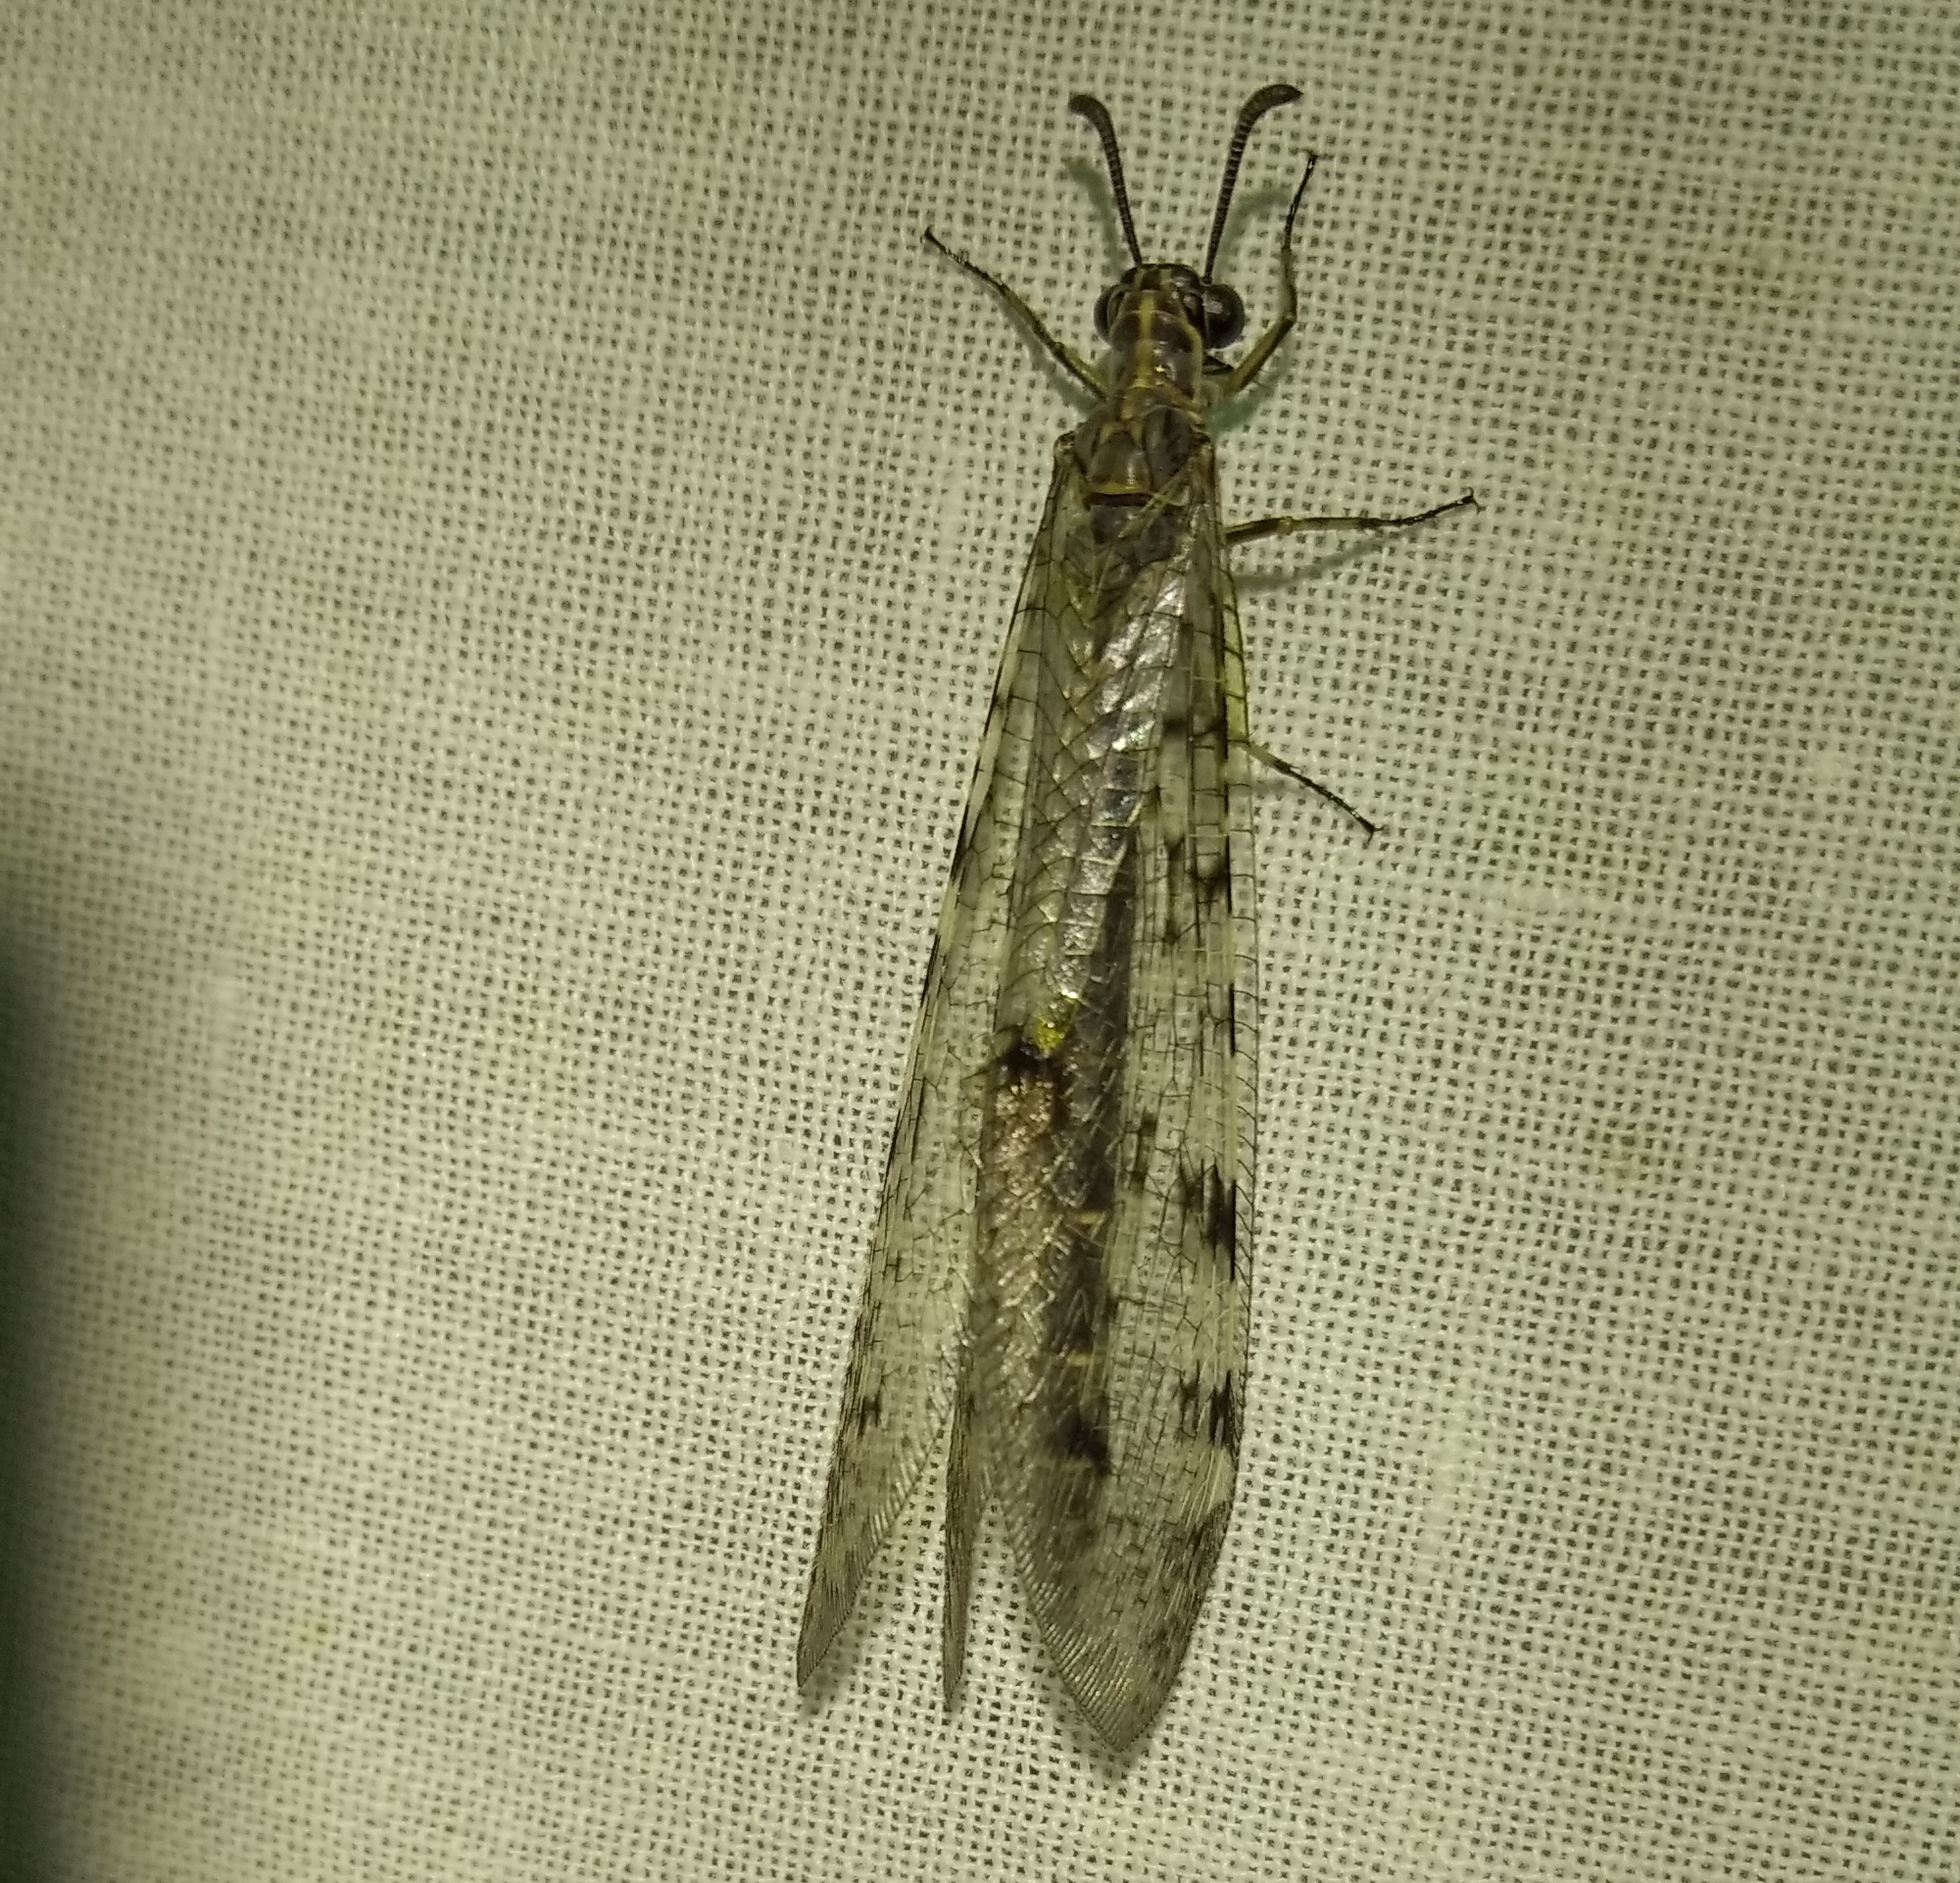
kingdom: Animalia
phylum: Arthropoda
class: Insecta
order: Neuroptera
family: Myrmeleontidae
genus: Euroleon
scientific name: Euroleon nostras
